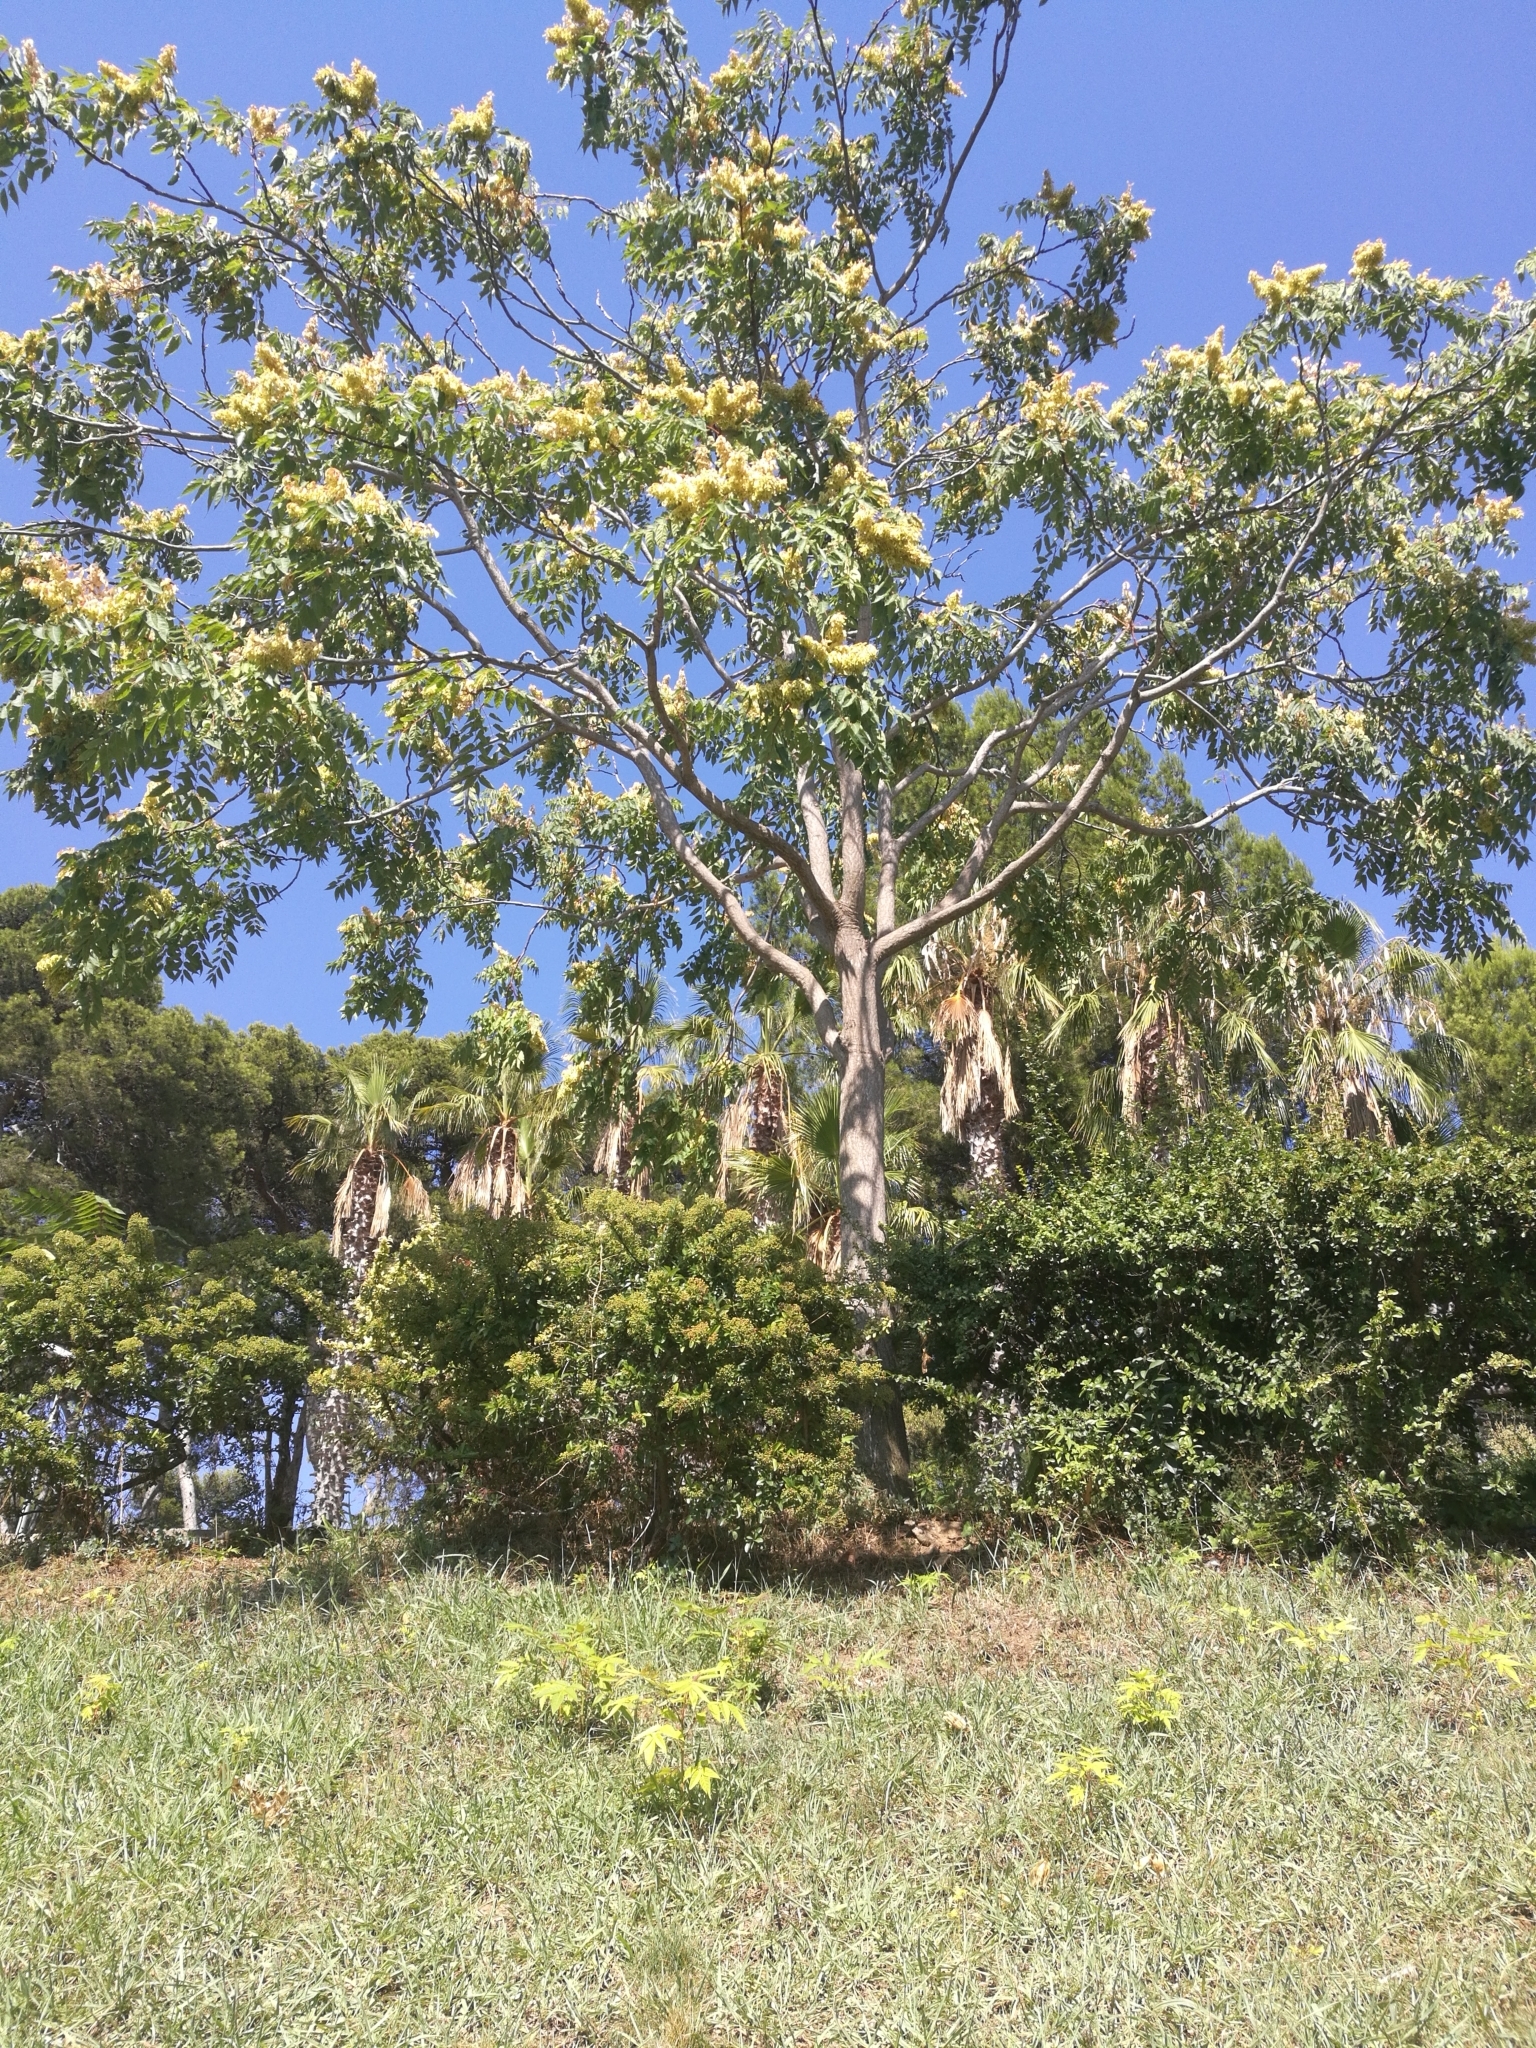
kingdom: Plantae
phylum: Tracheophyta
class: Magnoliopsida
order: Sapindales
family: Simaroubaceae
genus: Ailanthus
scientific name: Ailanthus altissima
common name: Tree-of-heaven
